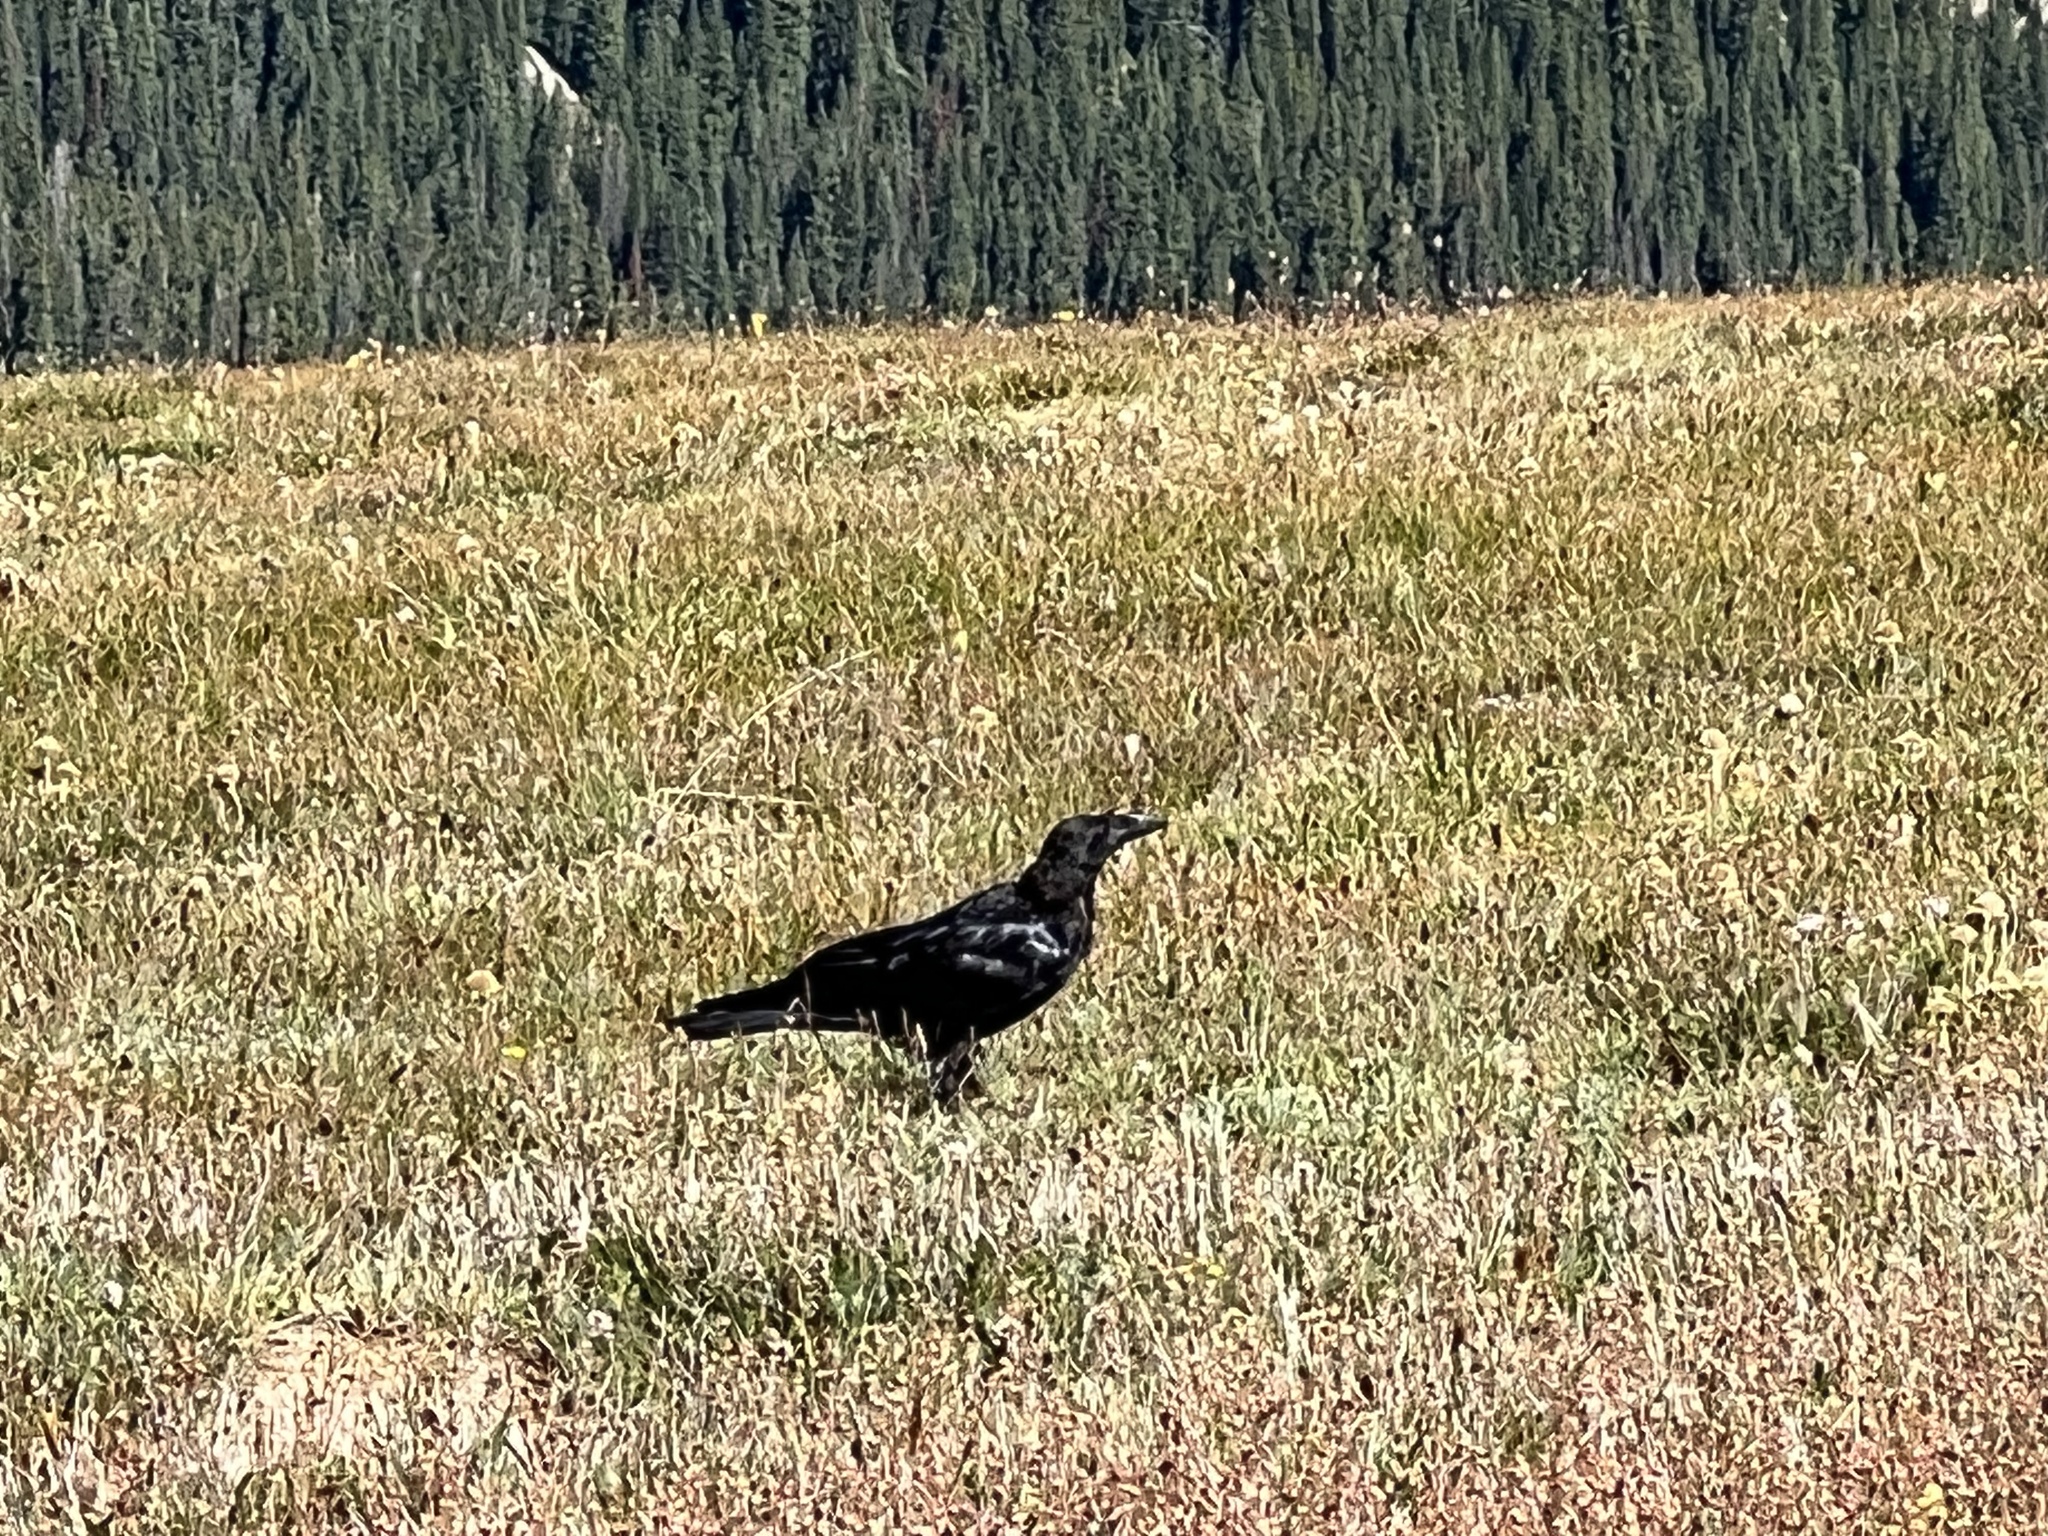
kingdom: Animalia
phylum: Chordata
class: Aves
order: Passeriformes
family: Corvidae
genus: Corvus
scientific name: Corvus corax
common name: Common raven
